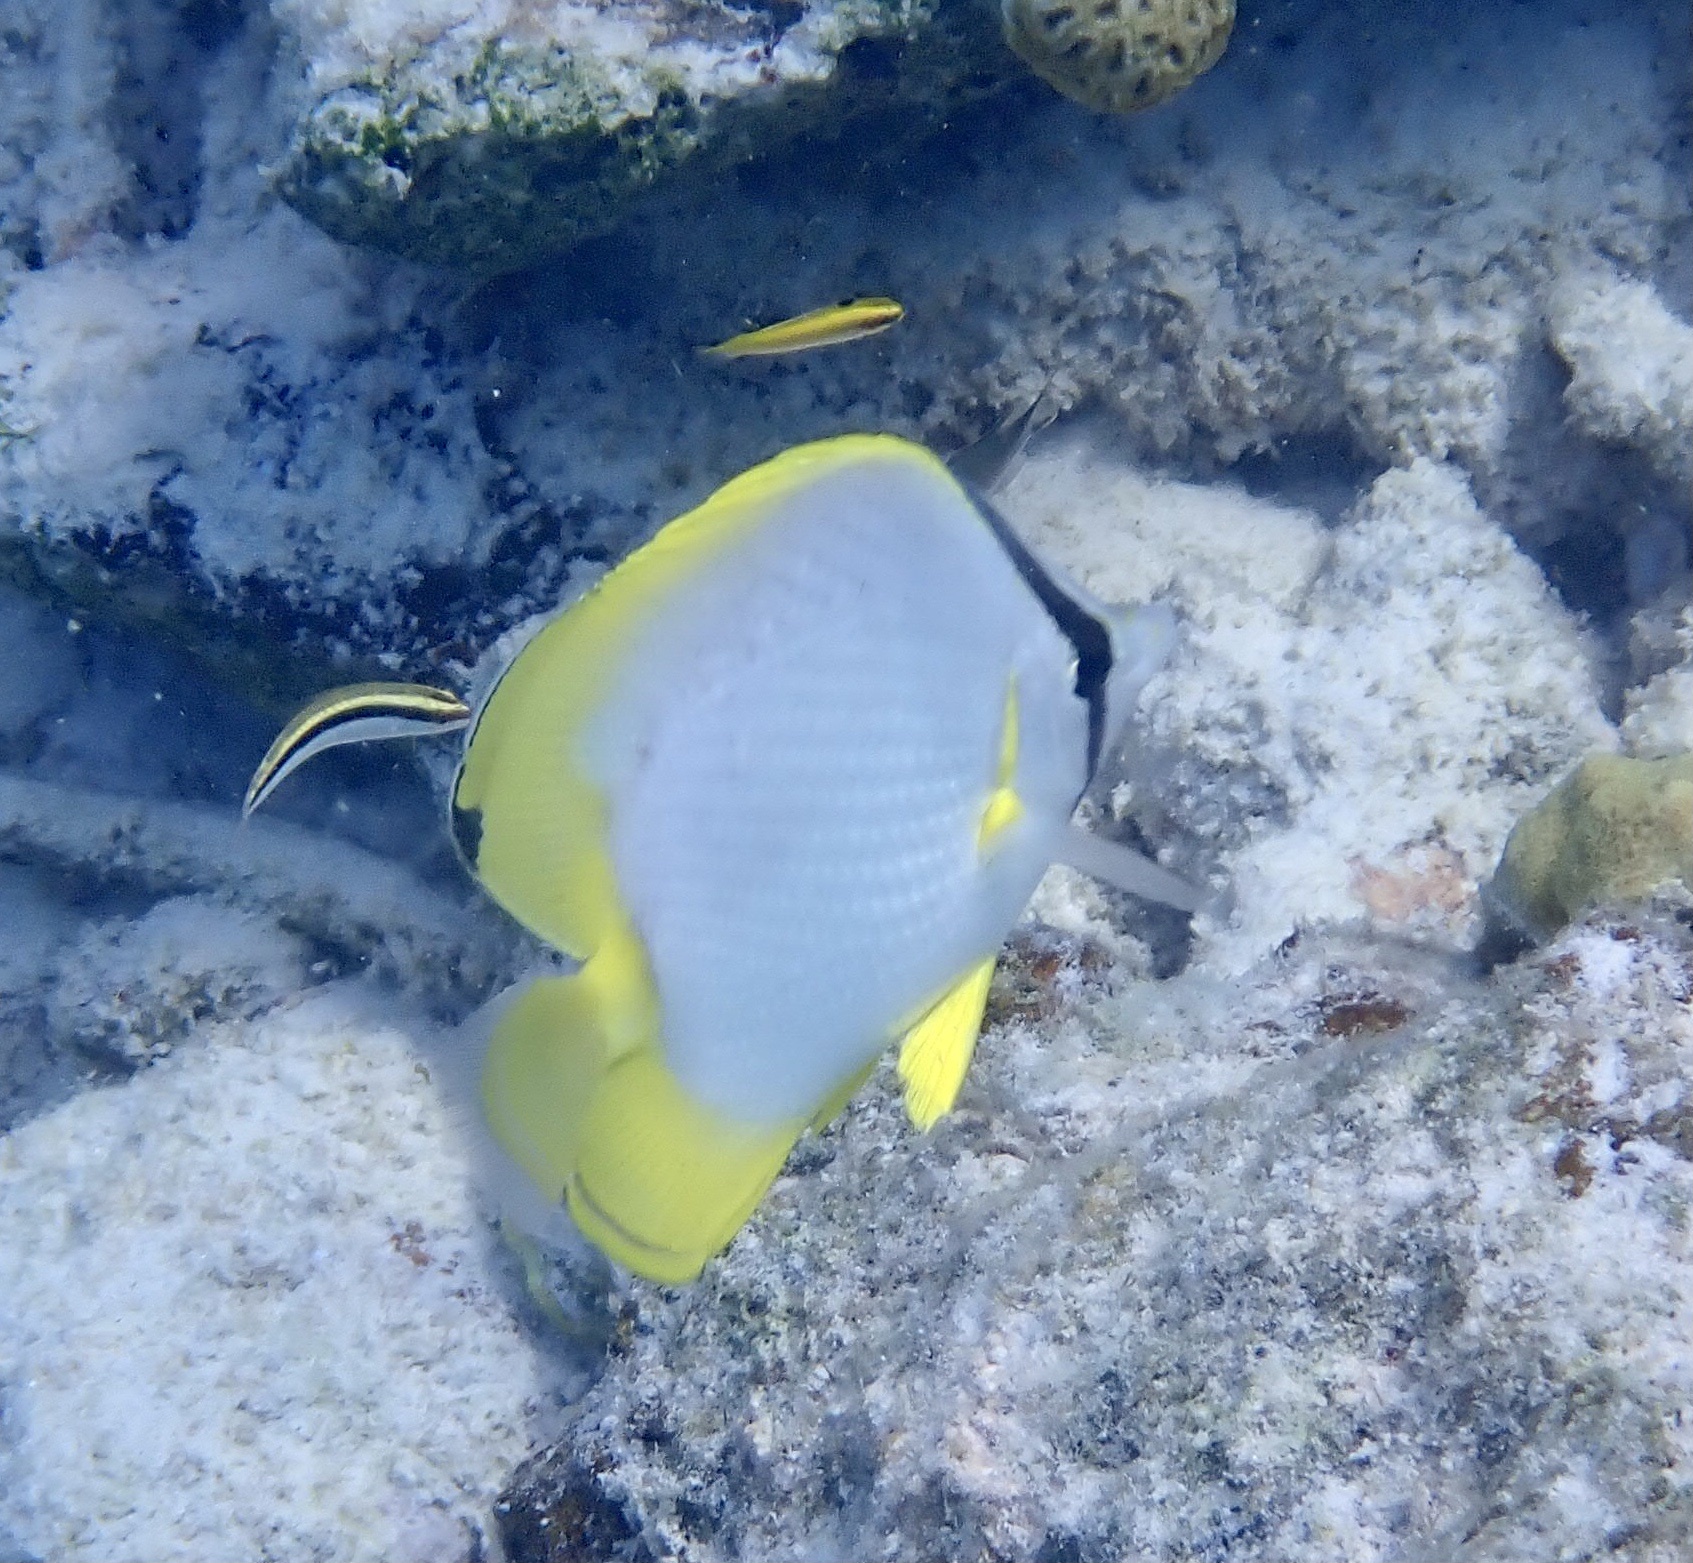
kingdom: Animalia
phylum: Chordata
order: Perciformes
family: Chaetodontidae
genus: Chaetodon
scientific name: Chaetodon ocellatus
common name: Spotfin butterflyfish
